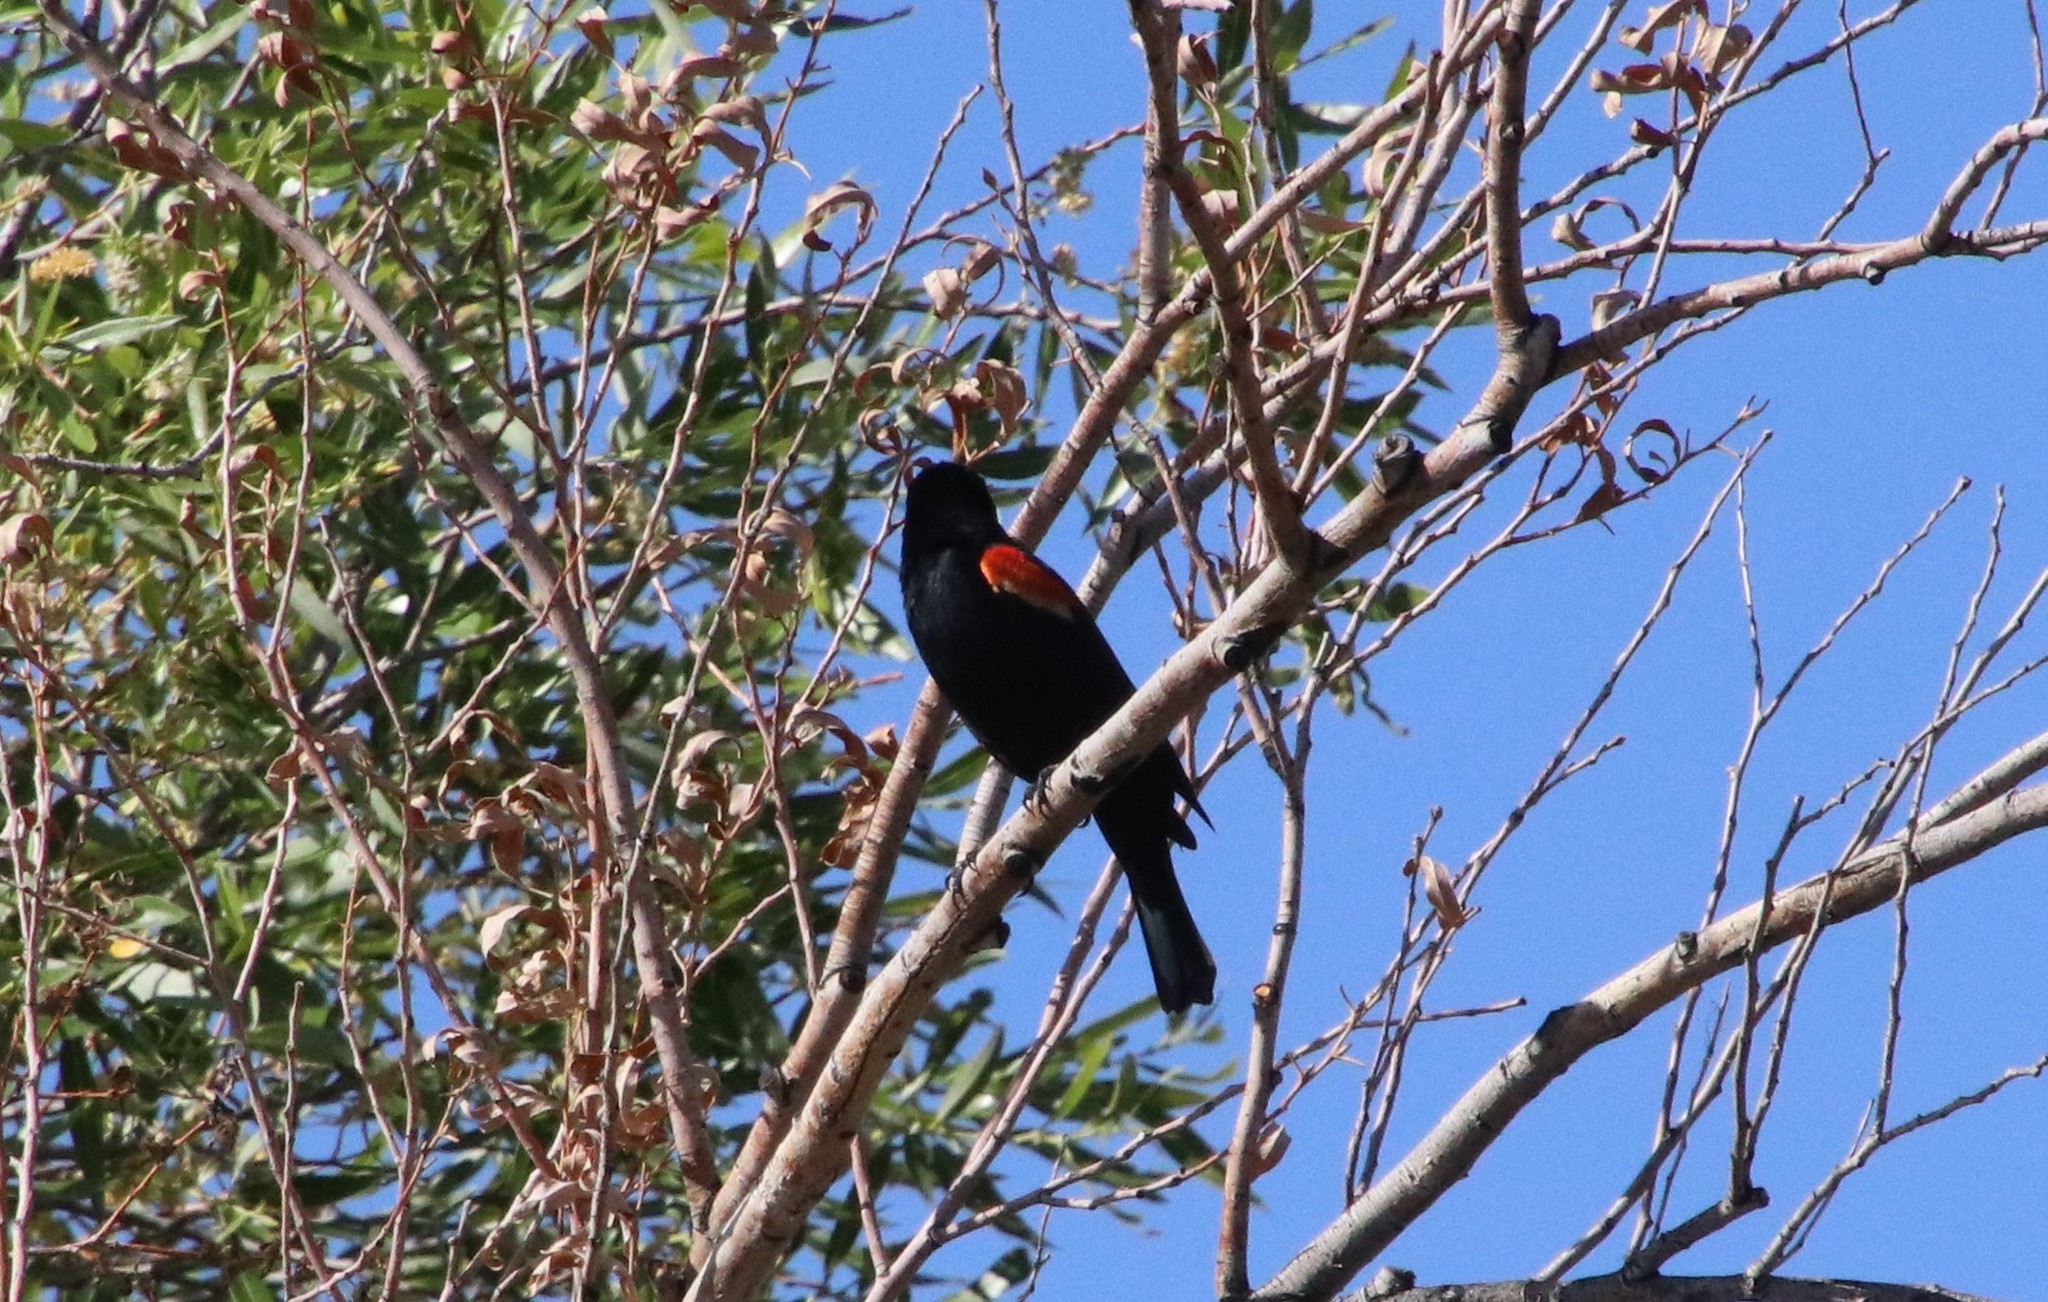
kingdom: Animalia
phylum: Chordata
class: Aves
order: Passeriformes
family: Icteridae
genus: Agelaius
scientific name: Agelaius phoeniceus
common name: Red-winged blackbird
